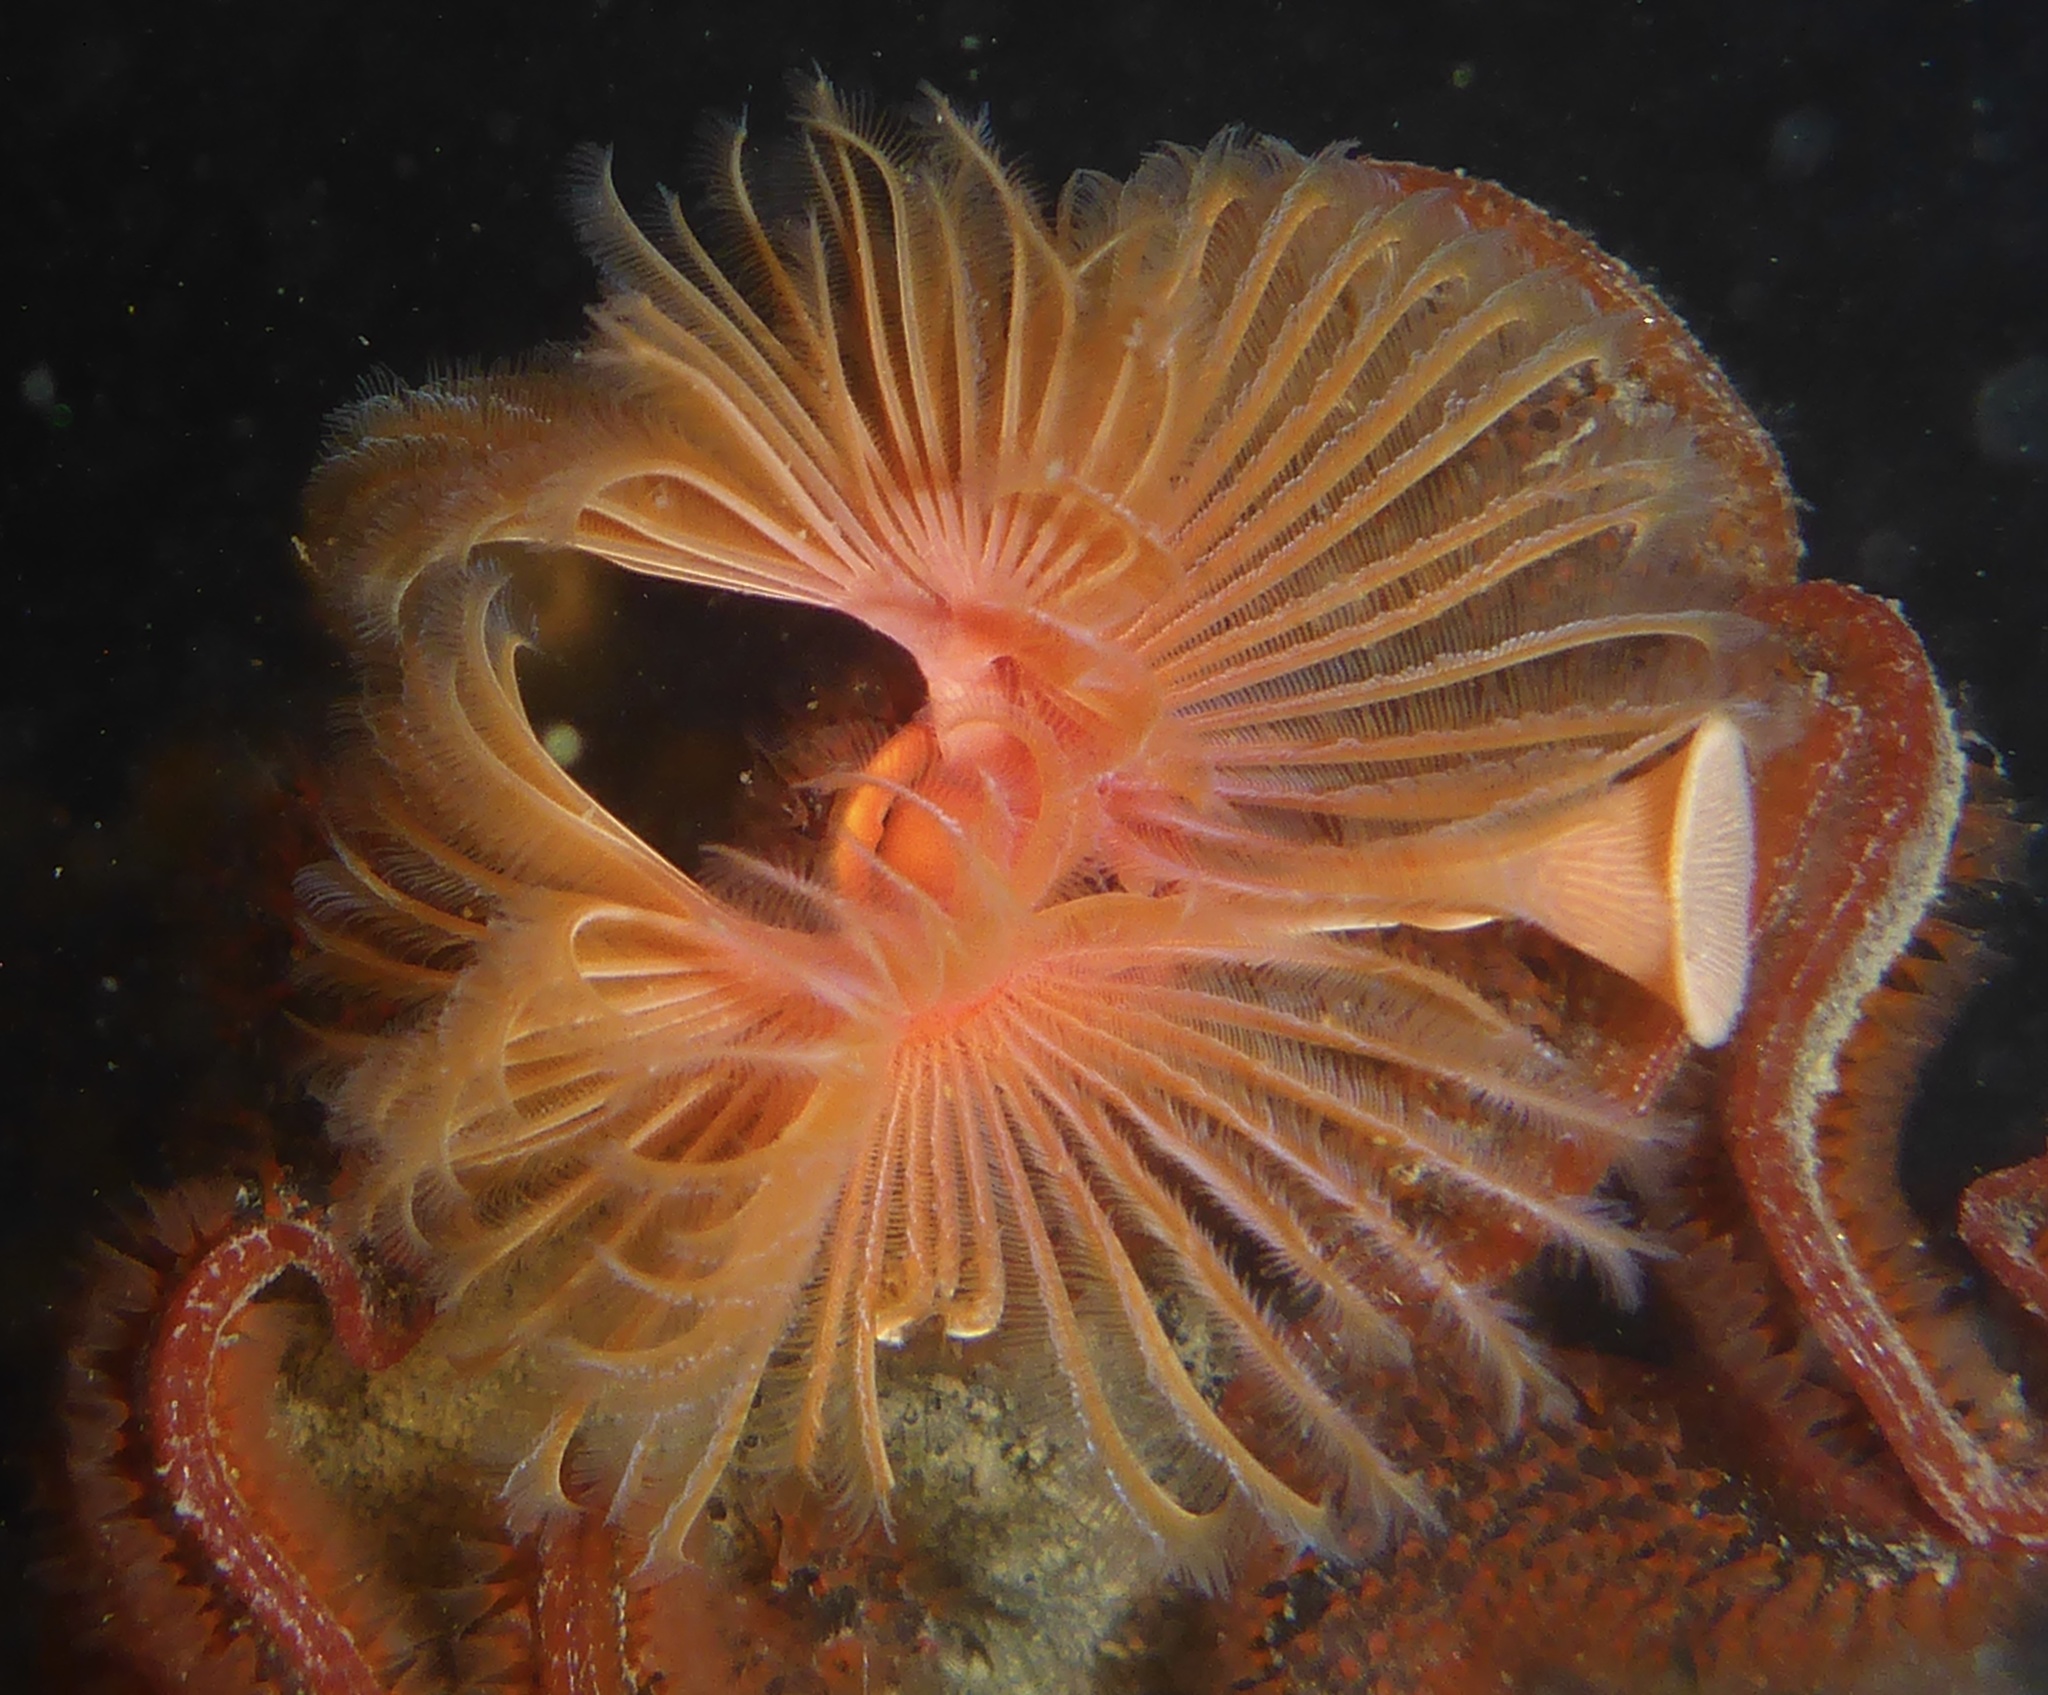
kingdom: Animalia
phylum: Annelida
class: Polychaeta
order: Sabellida
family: Serpulidae
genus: Serpula
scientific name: Serpula columbiana
